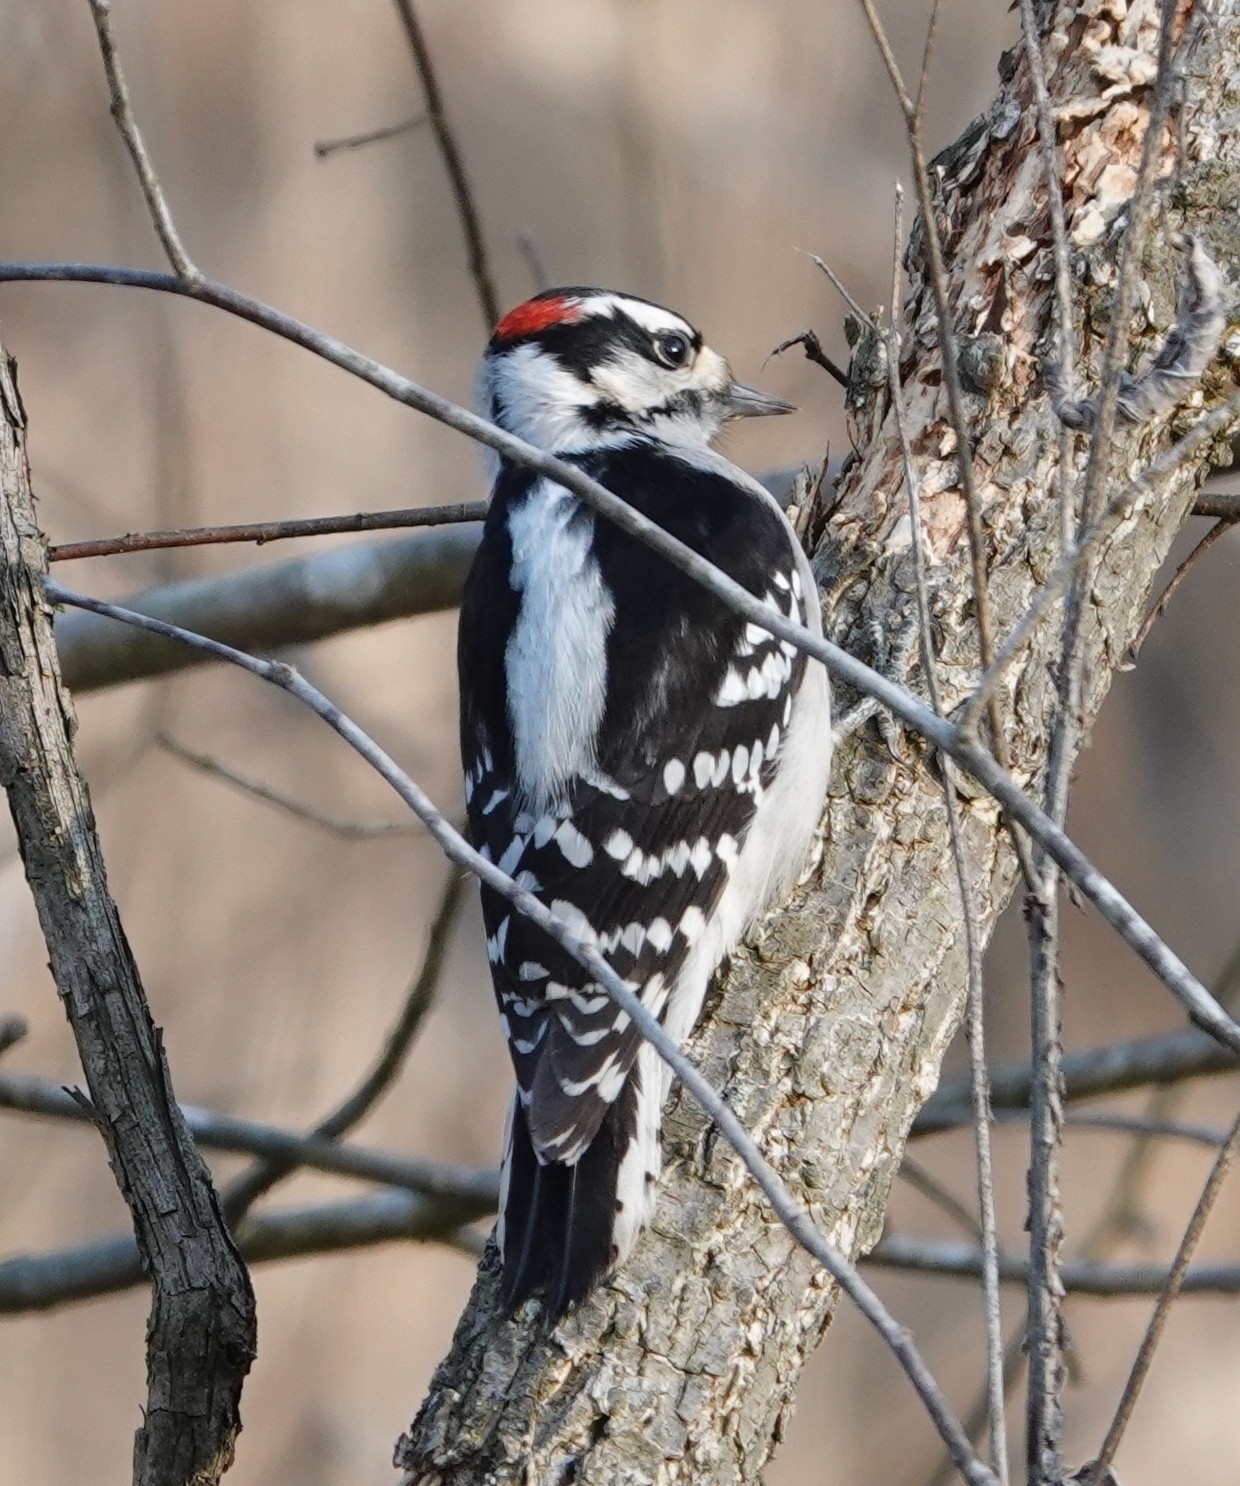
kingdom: Animalia
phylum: Chordata
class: Aves
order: Piciformes
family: Picidae
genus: Dryobates
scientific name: Dryobates pubescens
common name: Downy woodpecker
